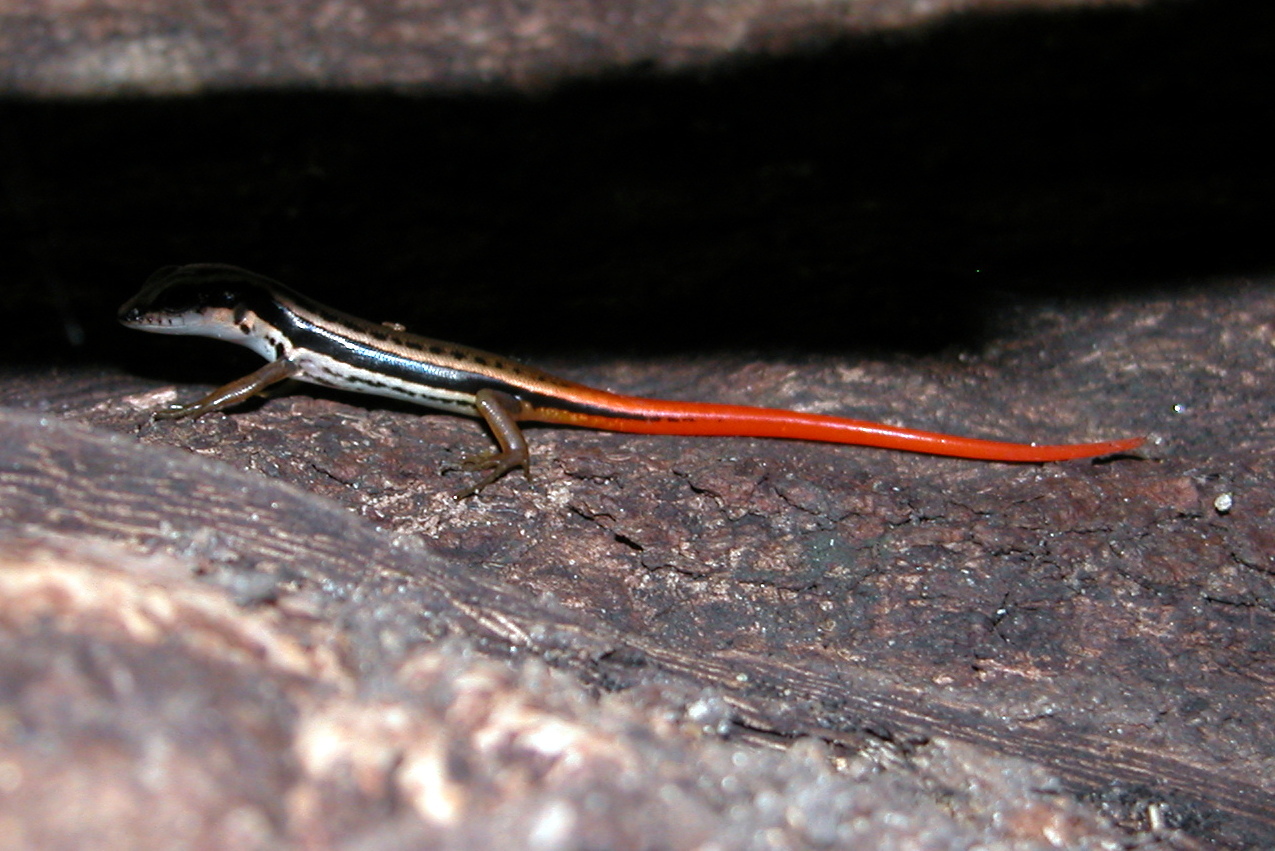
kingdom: Animalia
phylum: Chordata
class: Squamata
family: Scincidae
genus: Sphenomorphus
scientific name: Sphenomorphus dussumieri
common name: Dussumier's forest skink
